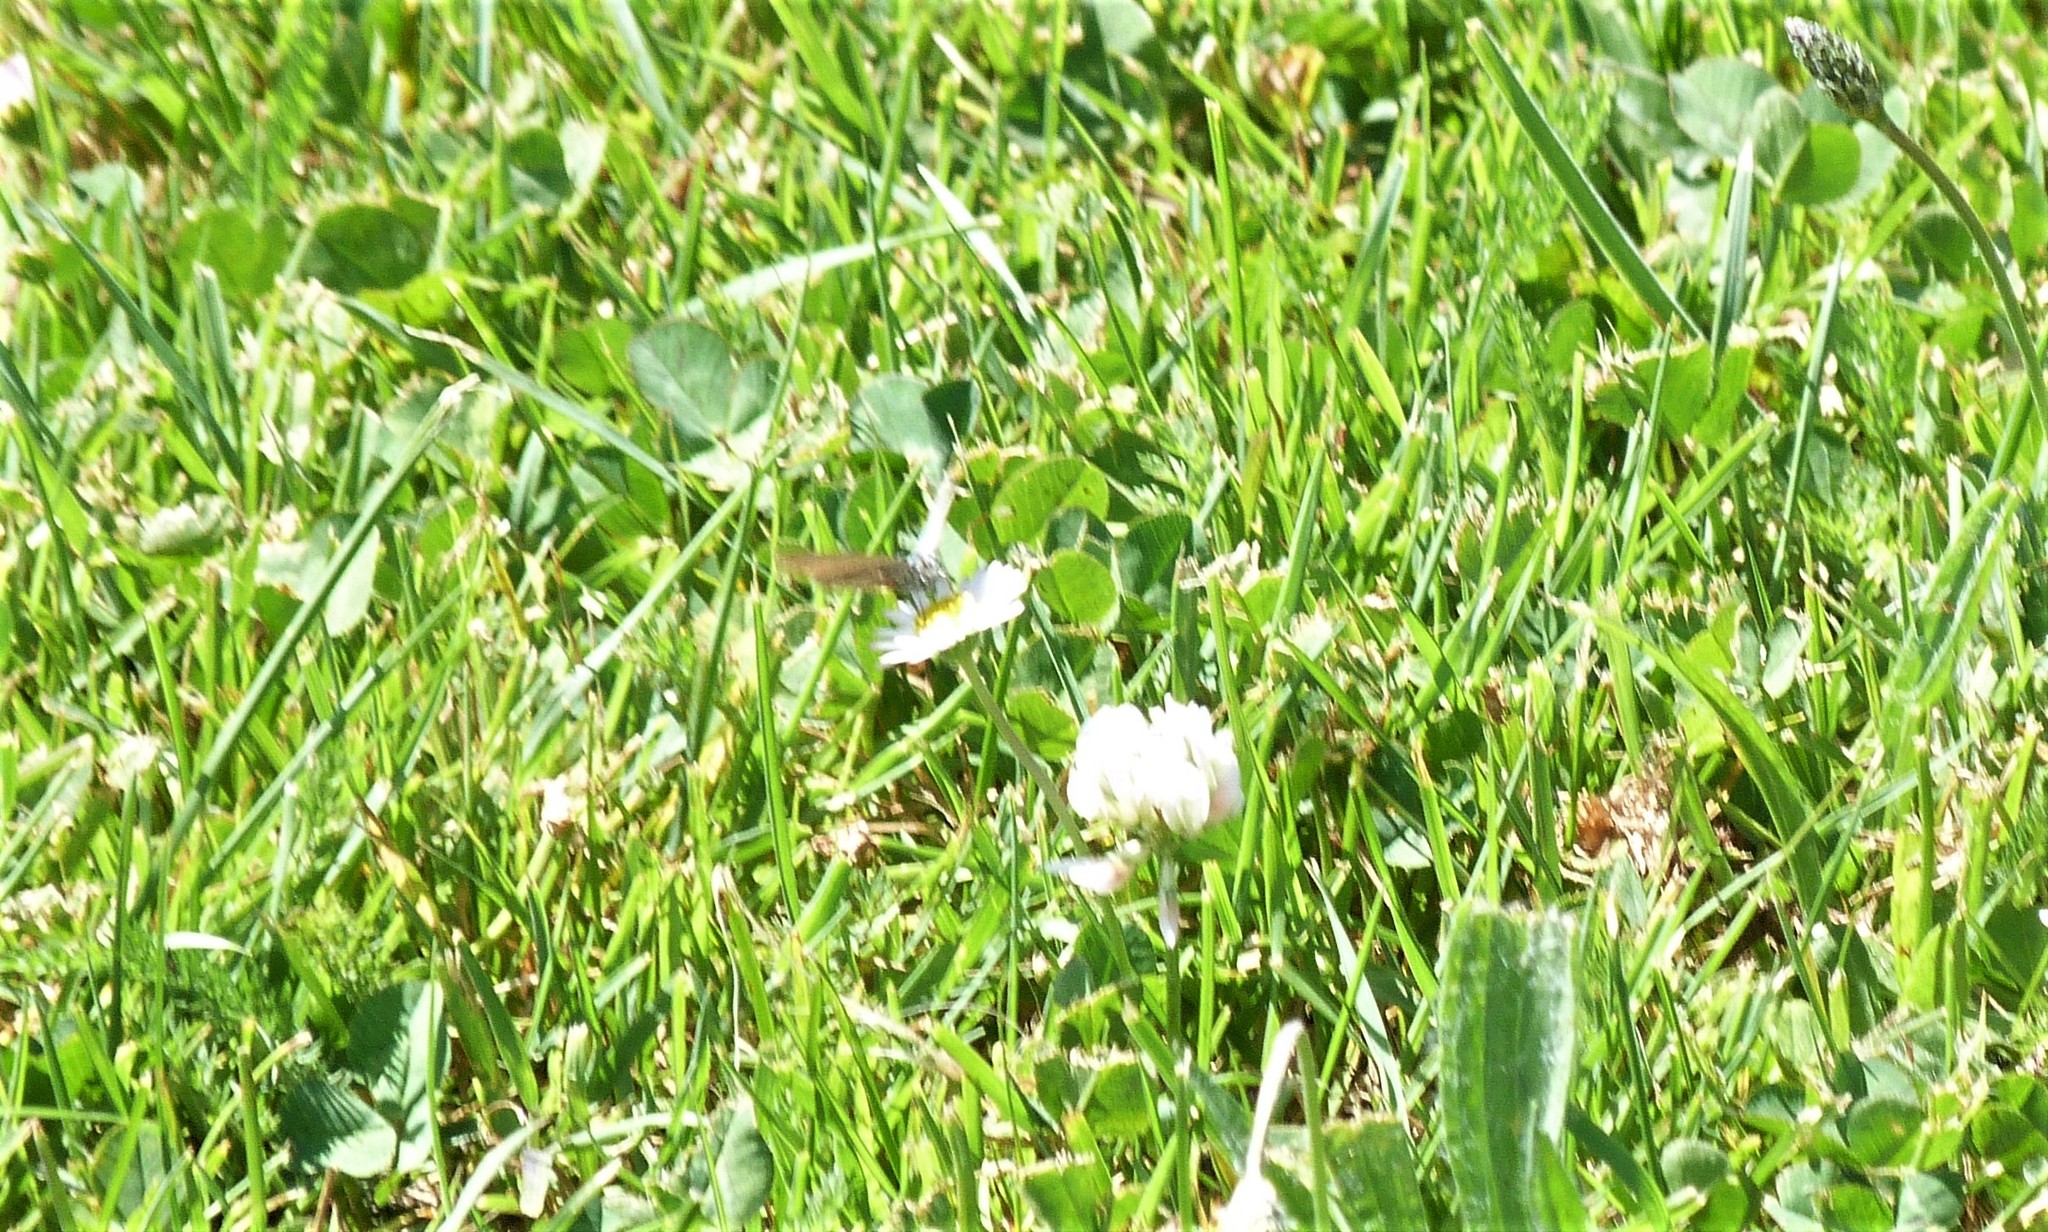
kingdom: Animalia
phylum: Arthropoda
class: Insecta
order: Lepidoptera
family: Lycaenidae
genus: Zizina
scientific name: Zizina
